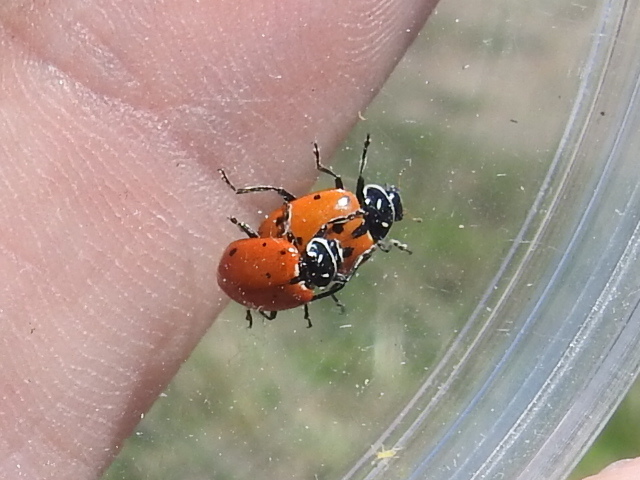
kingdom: Animalia
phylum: Arthropoda
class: Insecta
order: Coleoptera
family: Coccinellidae
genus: Hippodamia
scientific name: Hippodamia convergens
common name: Convergent lady beetle
